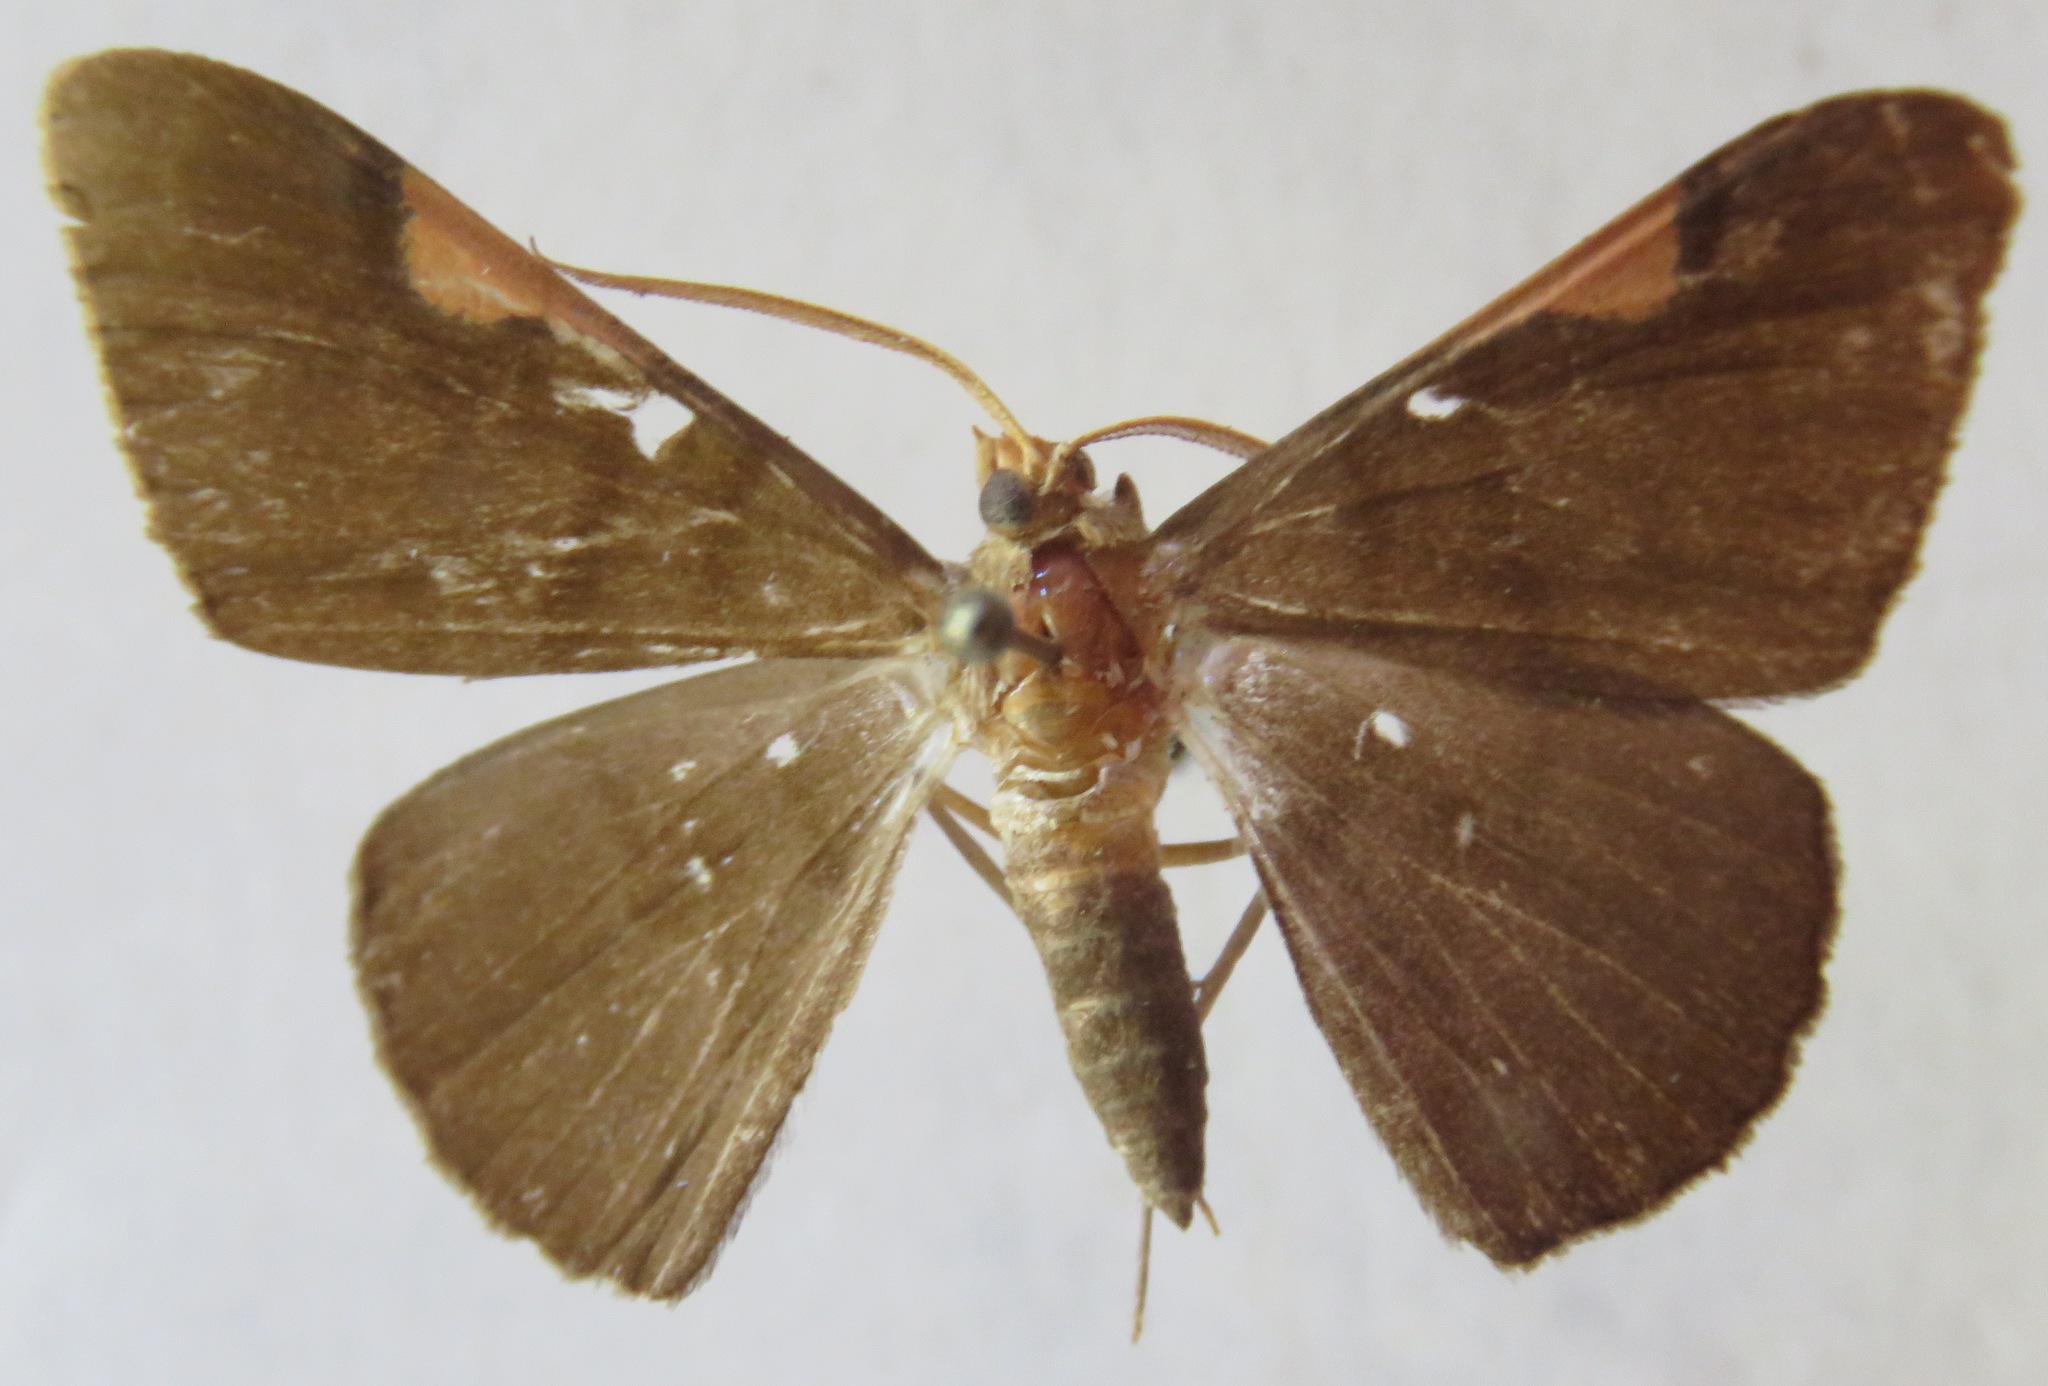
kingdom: Animalia
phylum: Arthropoda
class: Insecta
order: Lepidoptera
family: Geometridae
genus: Sphacelodes
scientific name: Sphacelodes vulneraria
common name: Looper moth
